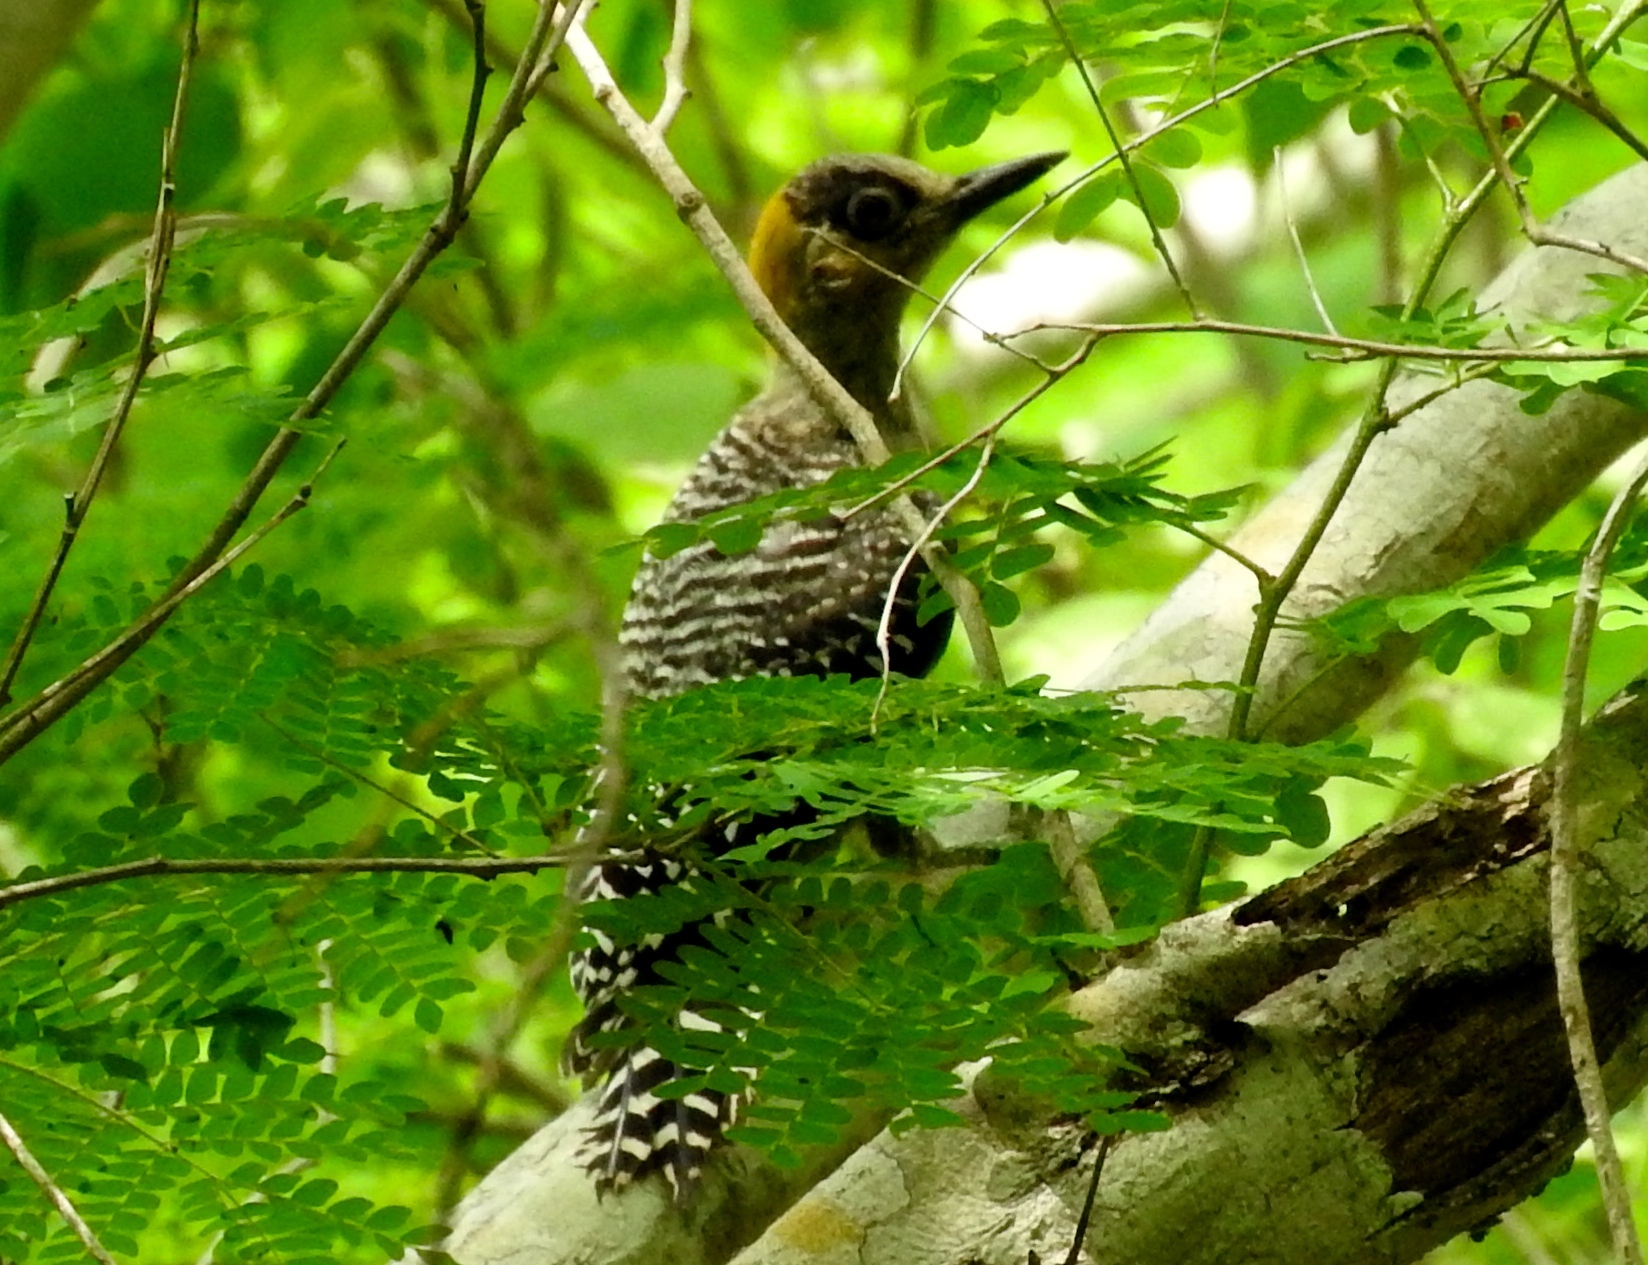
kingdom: Animalia
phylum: Chordata
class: Aves
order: Piciformes
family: Picidae
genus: Melanerpes
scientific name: Melanerpes chrysogenys
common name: Golden-cheeked woodpecker
